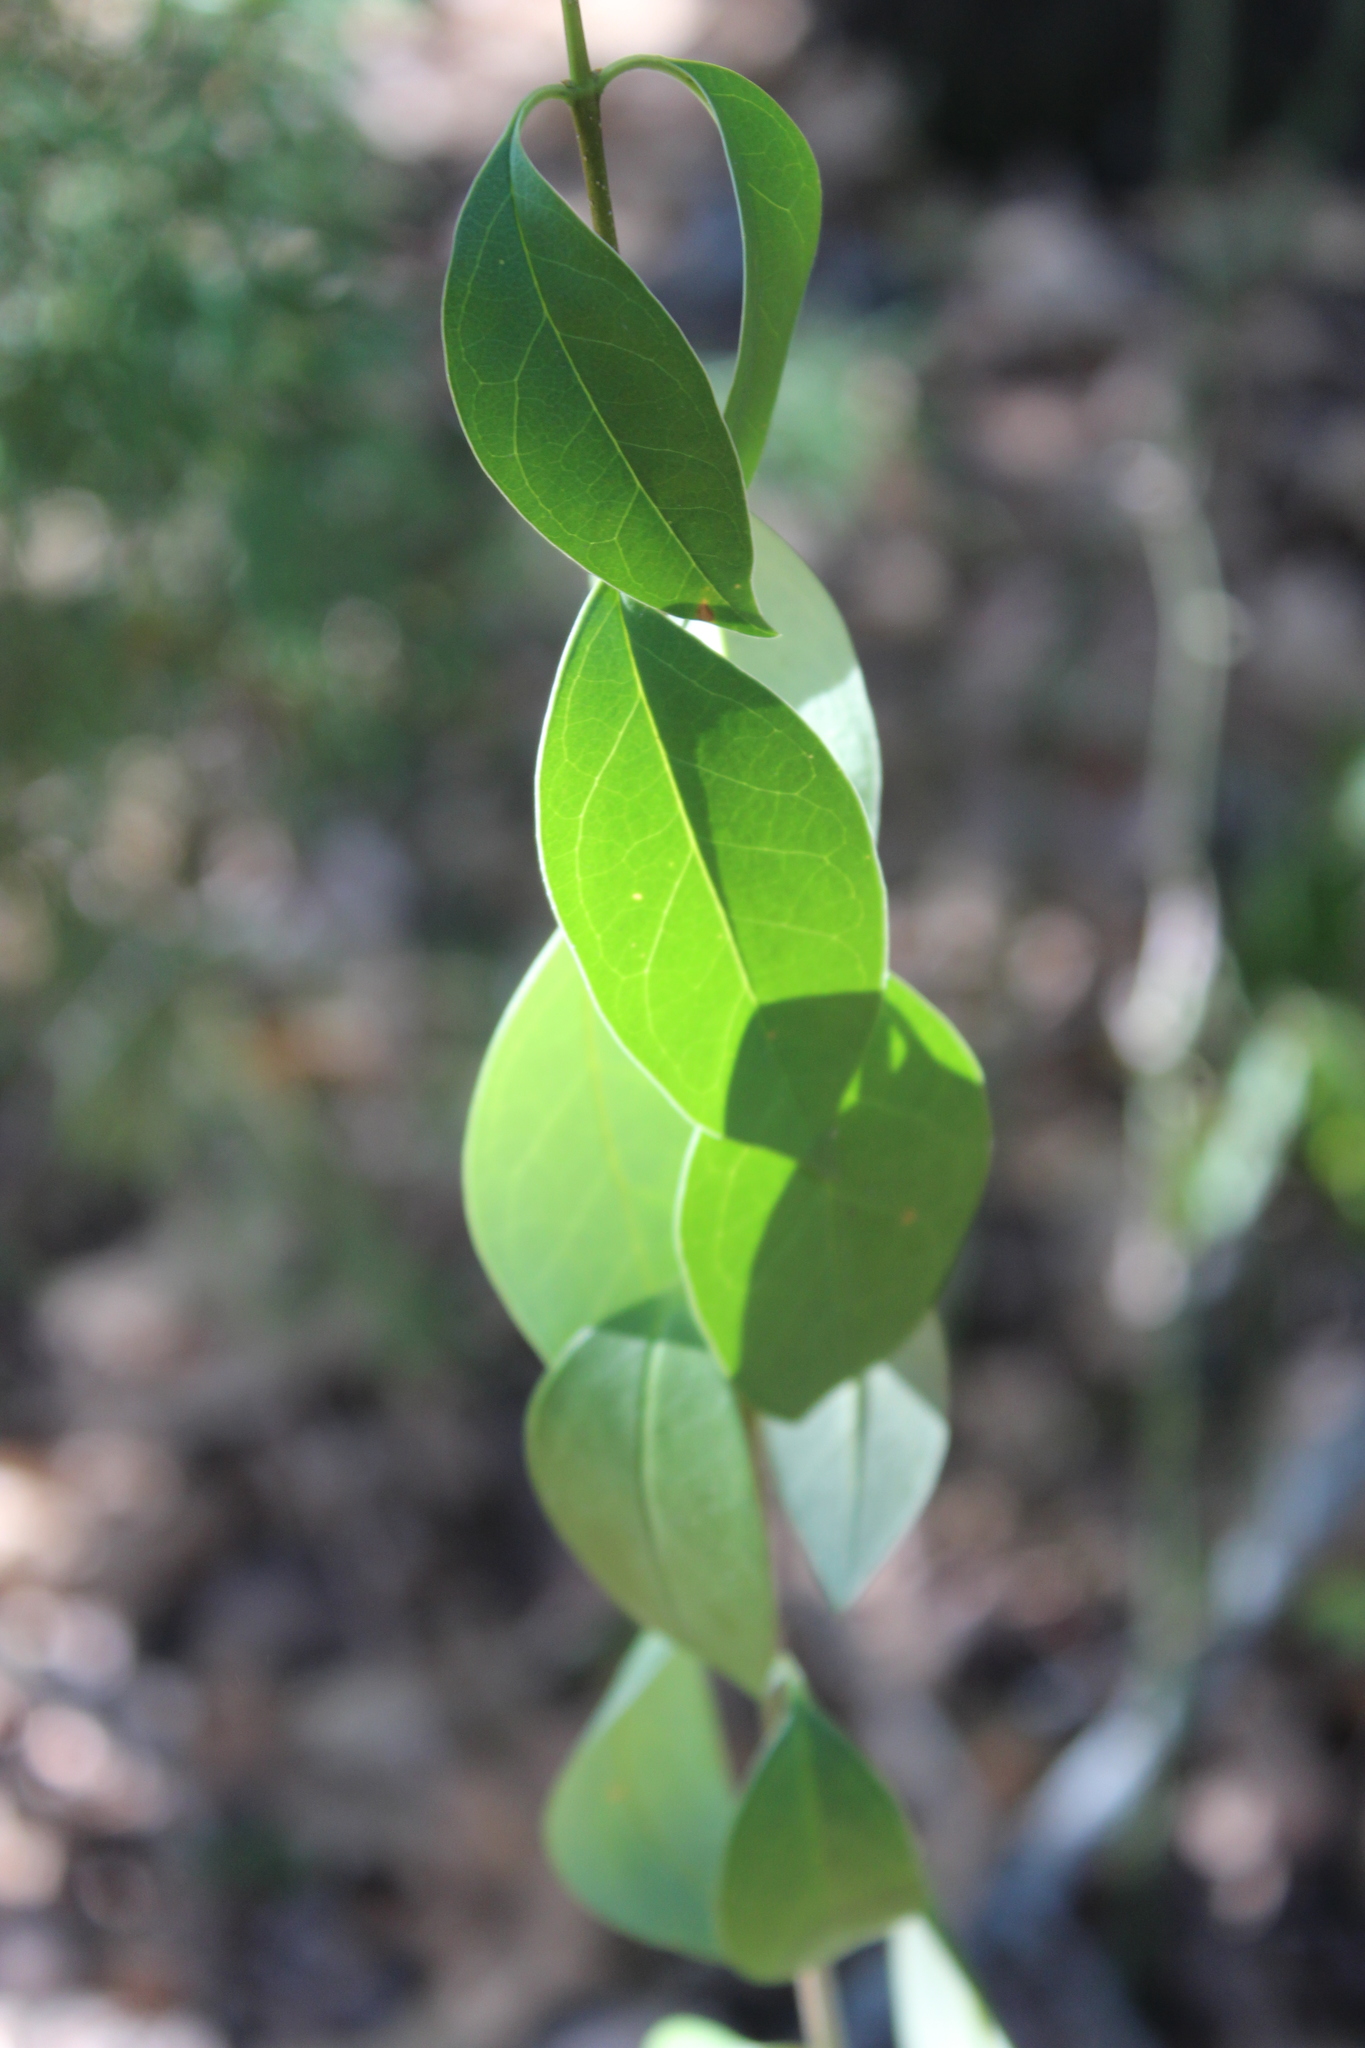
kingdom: Plantae
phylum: Tracheophyta
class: Magnoliopsida
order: Lamiales
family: Oleaceae
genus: Ligustrum
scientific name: Ligustrum lucidum
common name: Glossy privet
